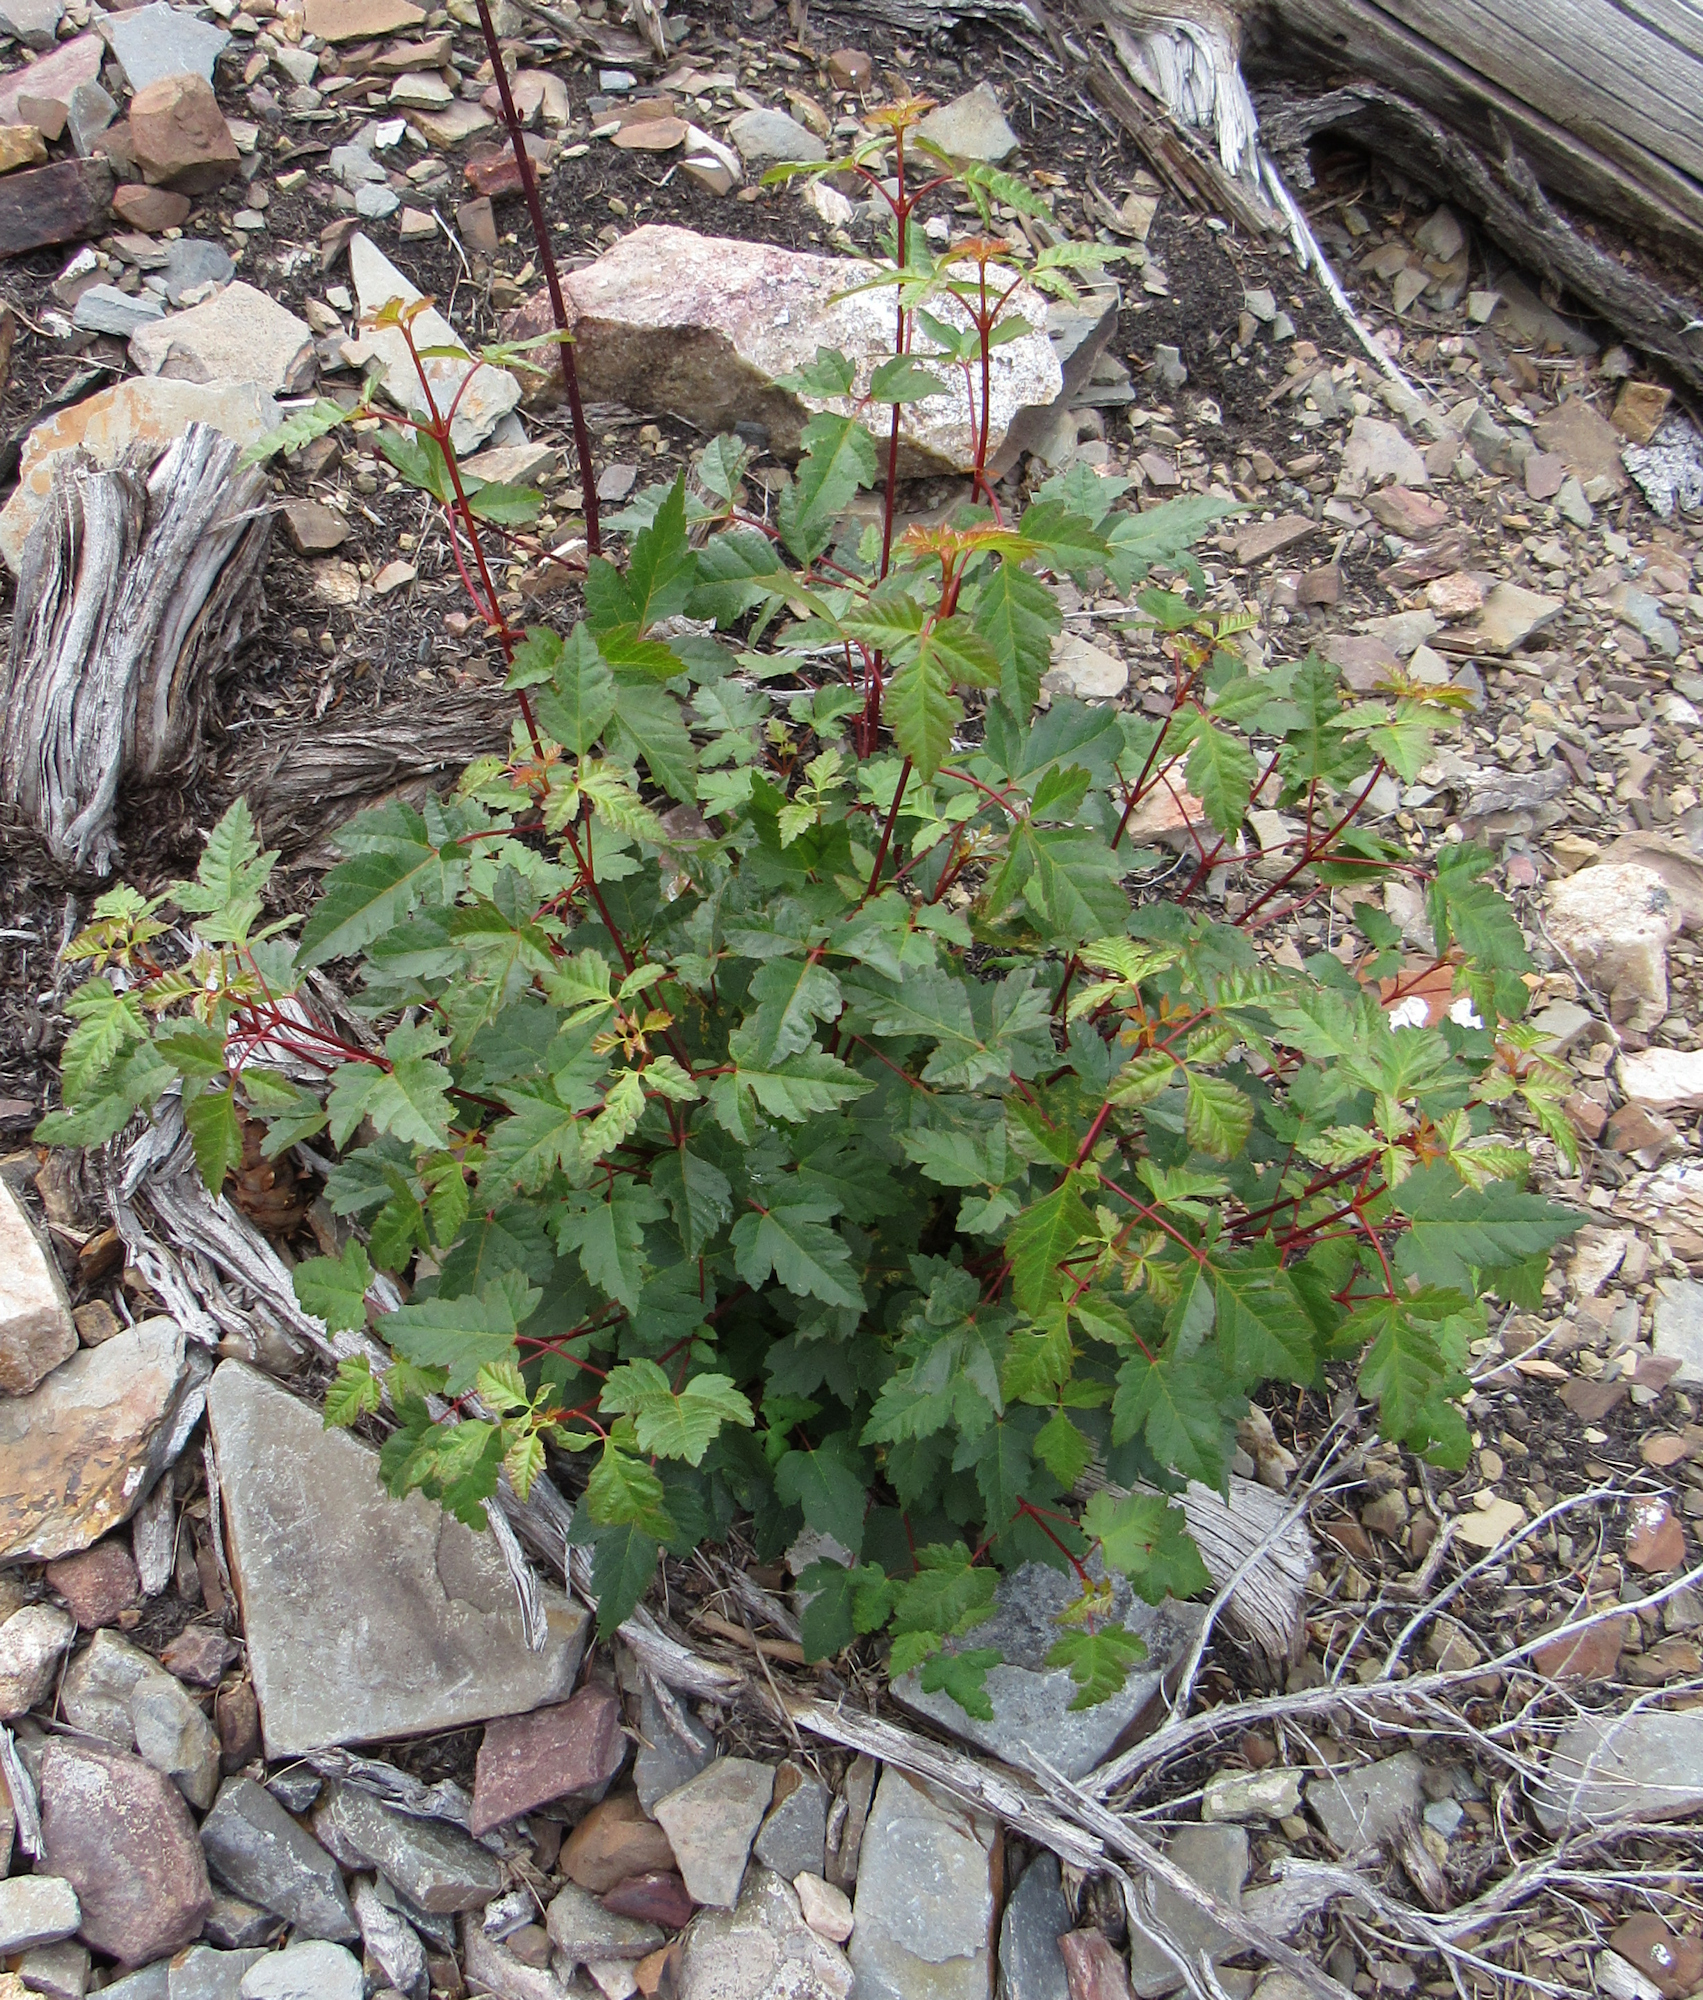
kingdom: Plantae
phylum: Tracheophyta
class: Magnoliopsida
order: Sapindales
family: Sapindaceae
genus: Acer
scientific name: Acer glabrum
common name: Rocky mountain maple
